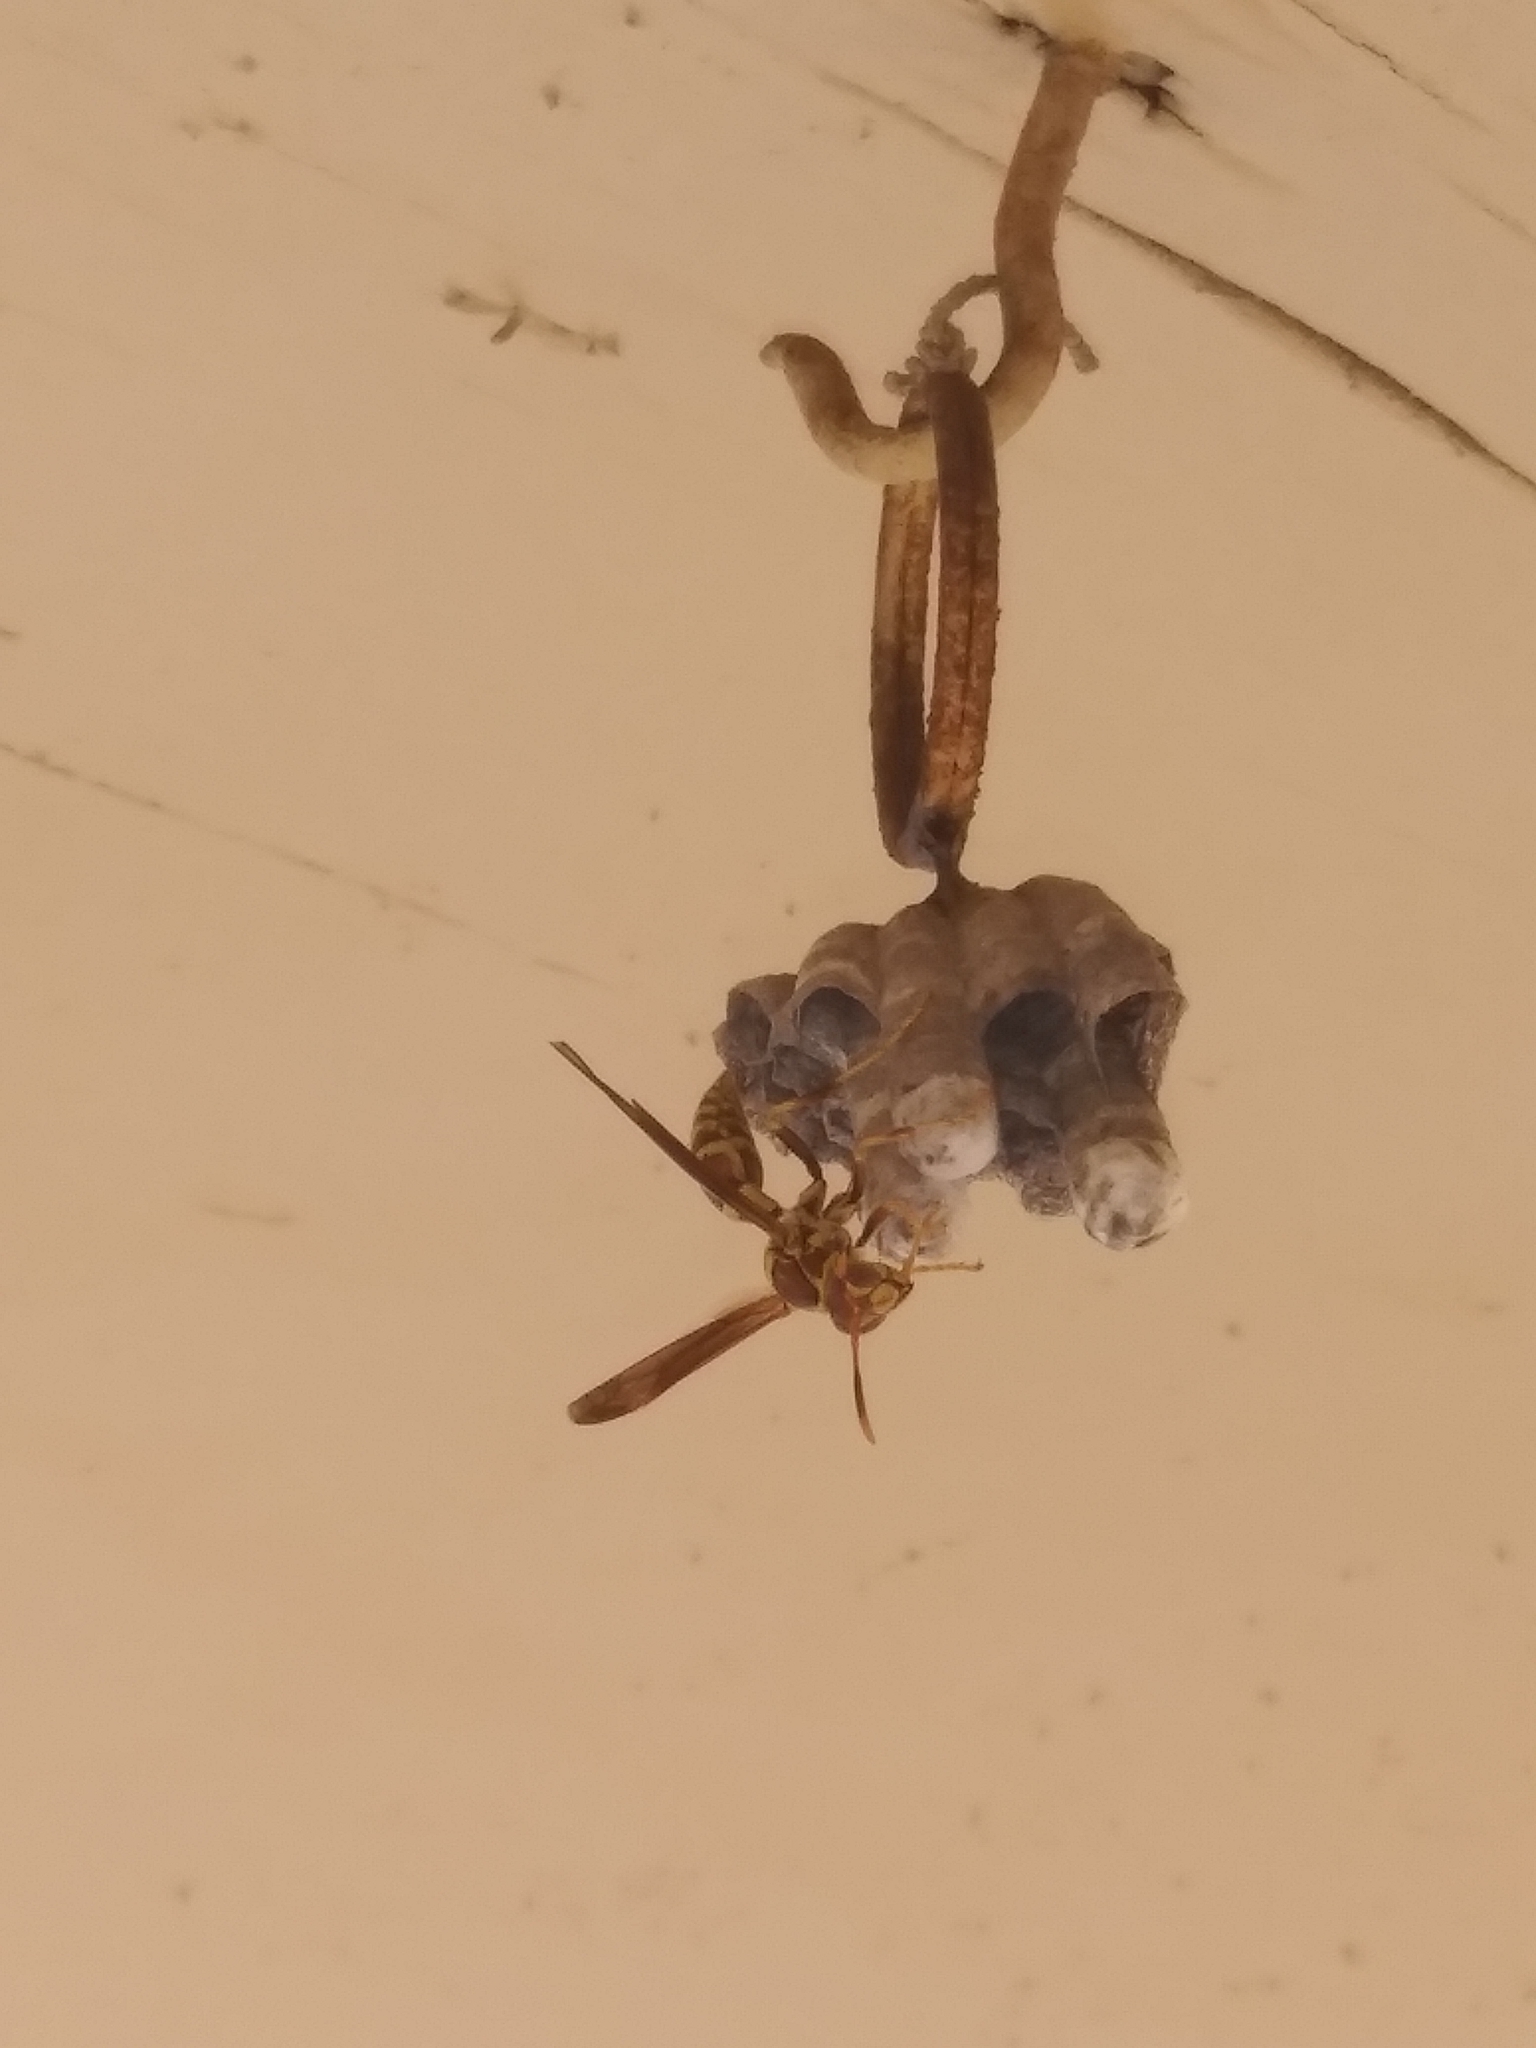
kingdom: Animalia
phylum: Arthropoda
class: Insecta
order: Hymenoptera
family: Eumenidae
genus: Polistes
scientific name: Polistes exclamans
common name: Paper wasp
